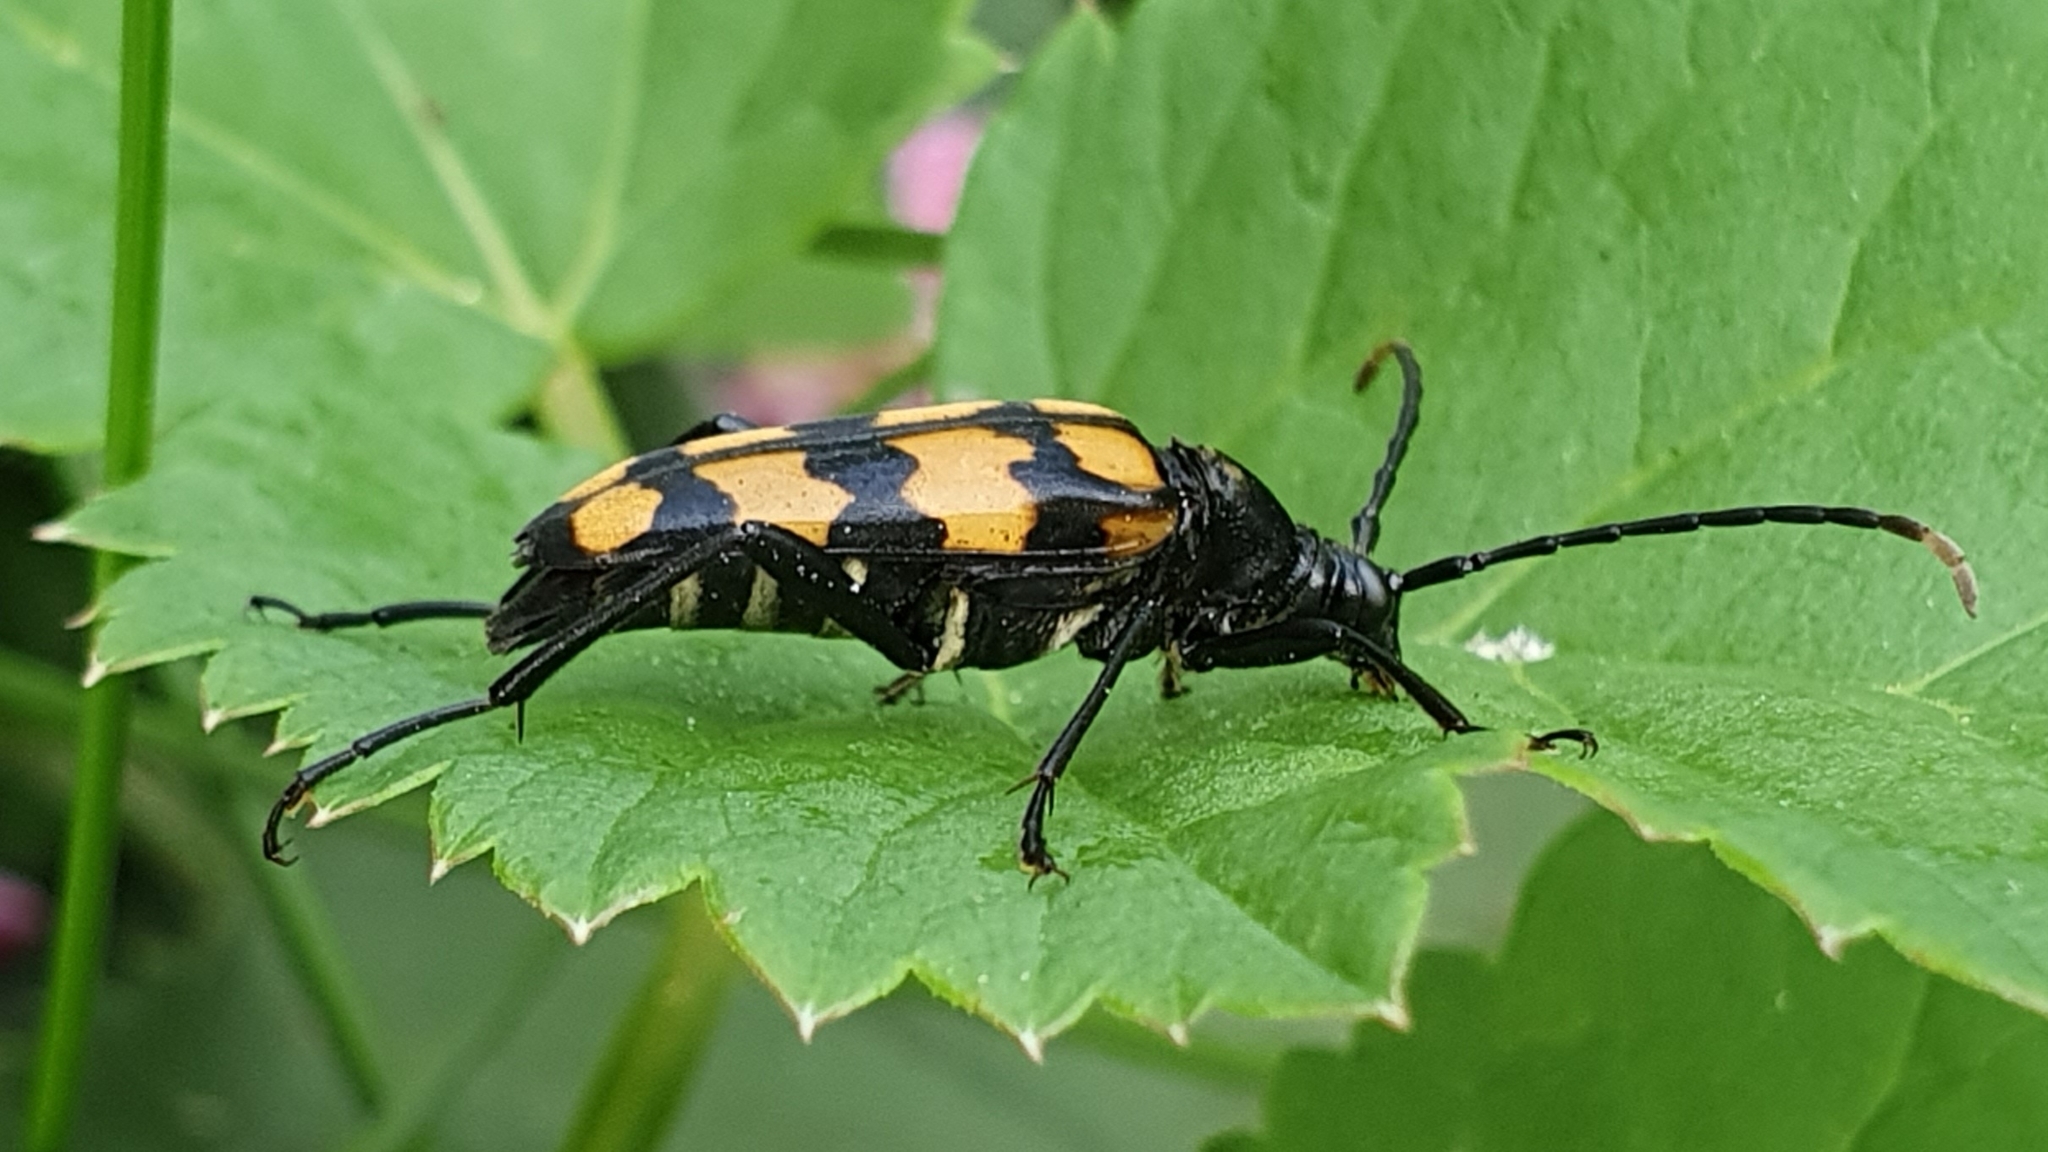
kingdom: Animalia
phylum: Arthropoda
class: Insecta
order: Coleoptera
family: Cerambycidae
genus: Leptura
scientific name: Leptura quadrifasciata
